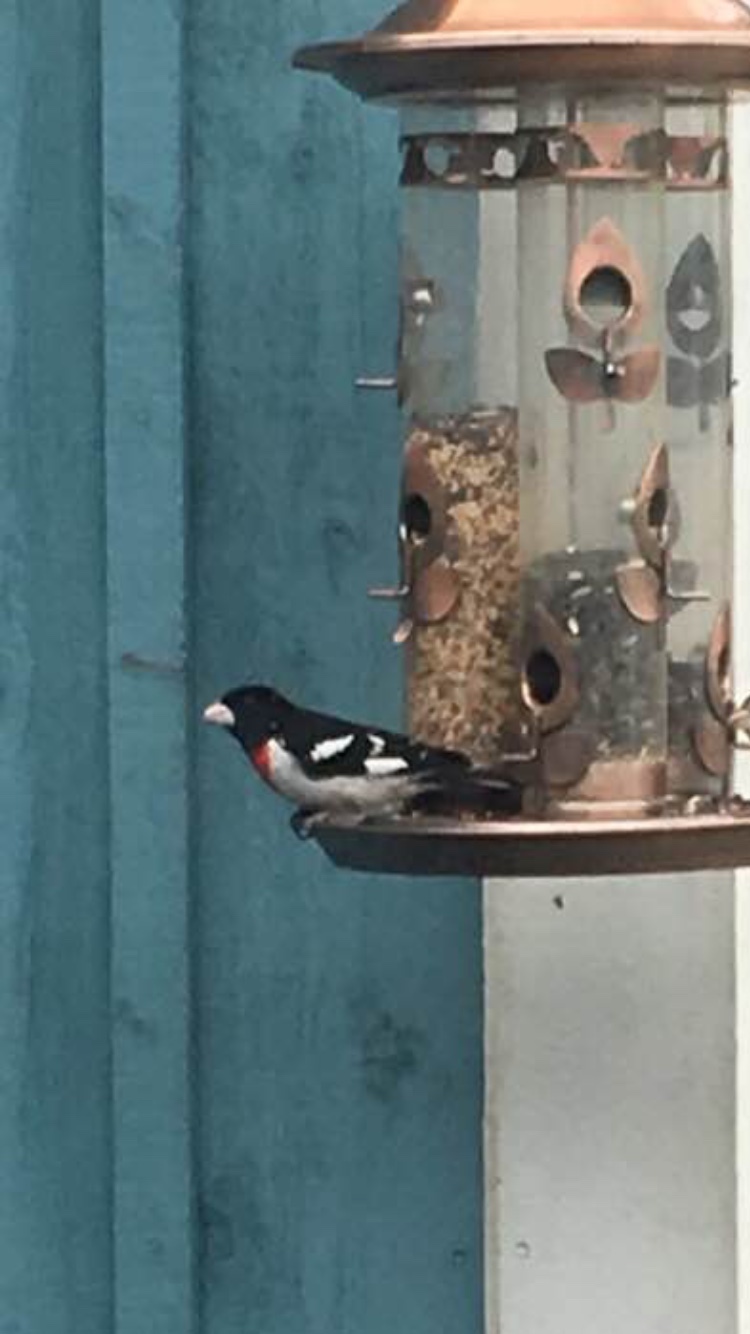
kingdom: Animalia
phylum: Chordata
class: Aves
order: Passeriformes
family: Cardinalidae
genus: Pheucticus
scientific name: Pheucticus ludovicianus
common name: Rose-breasted grosbeak
